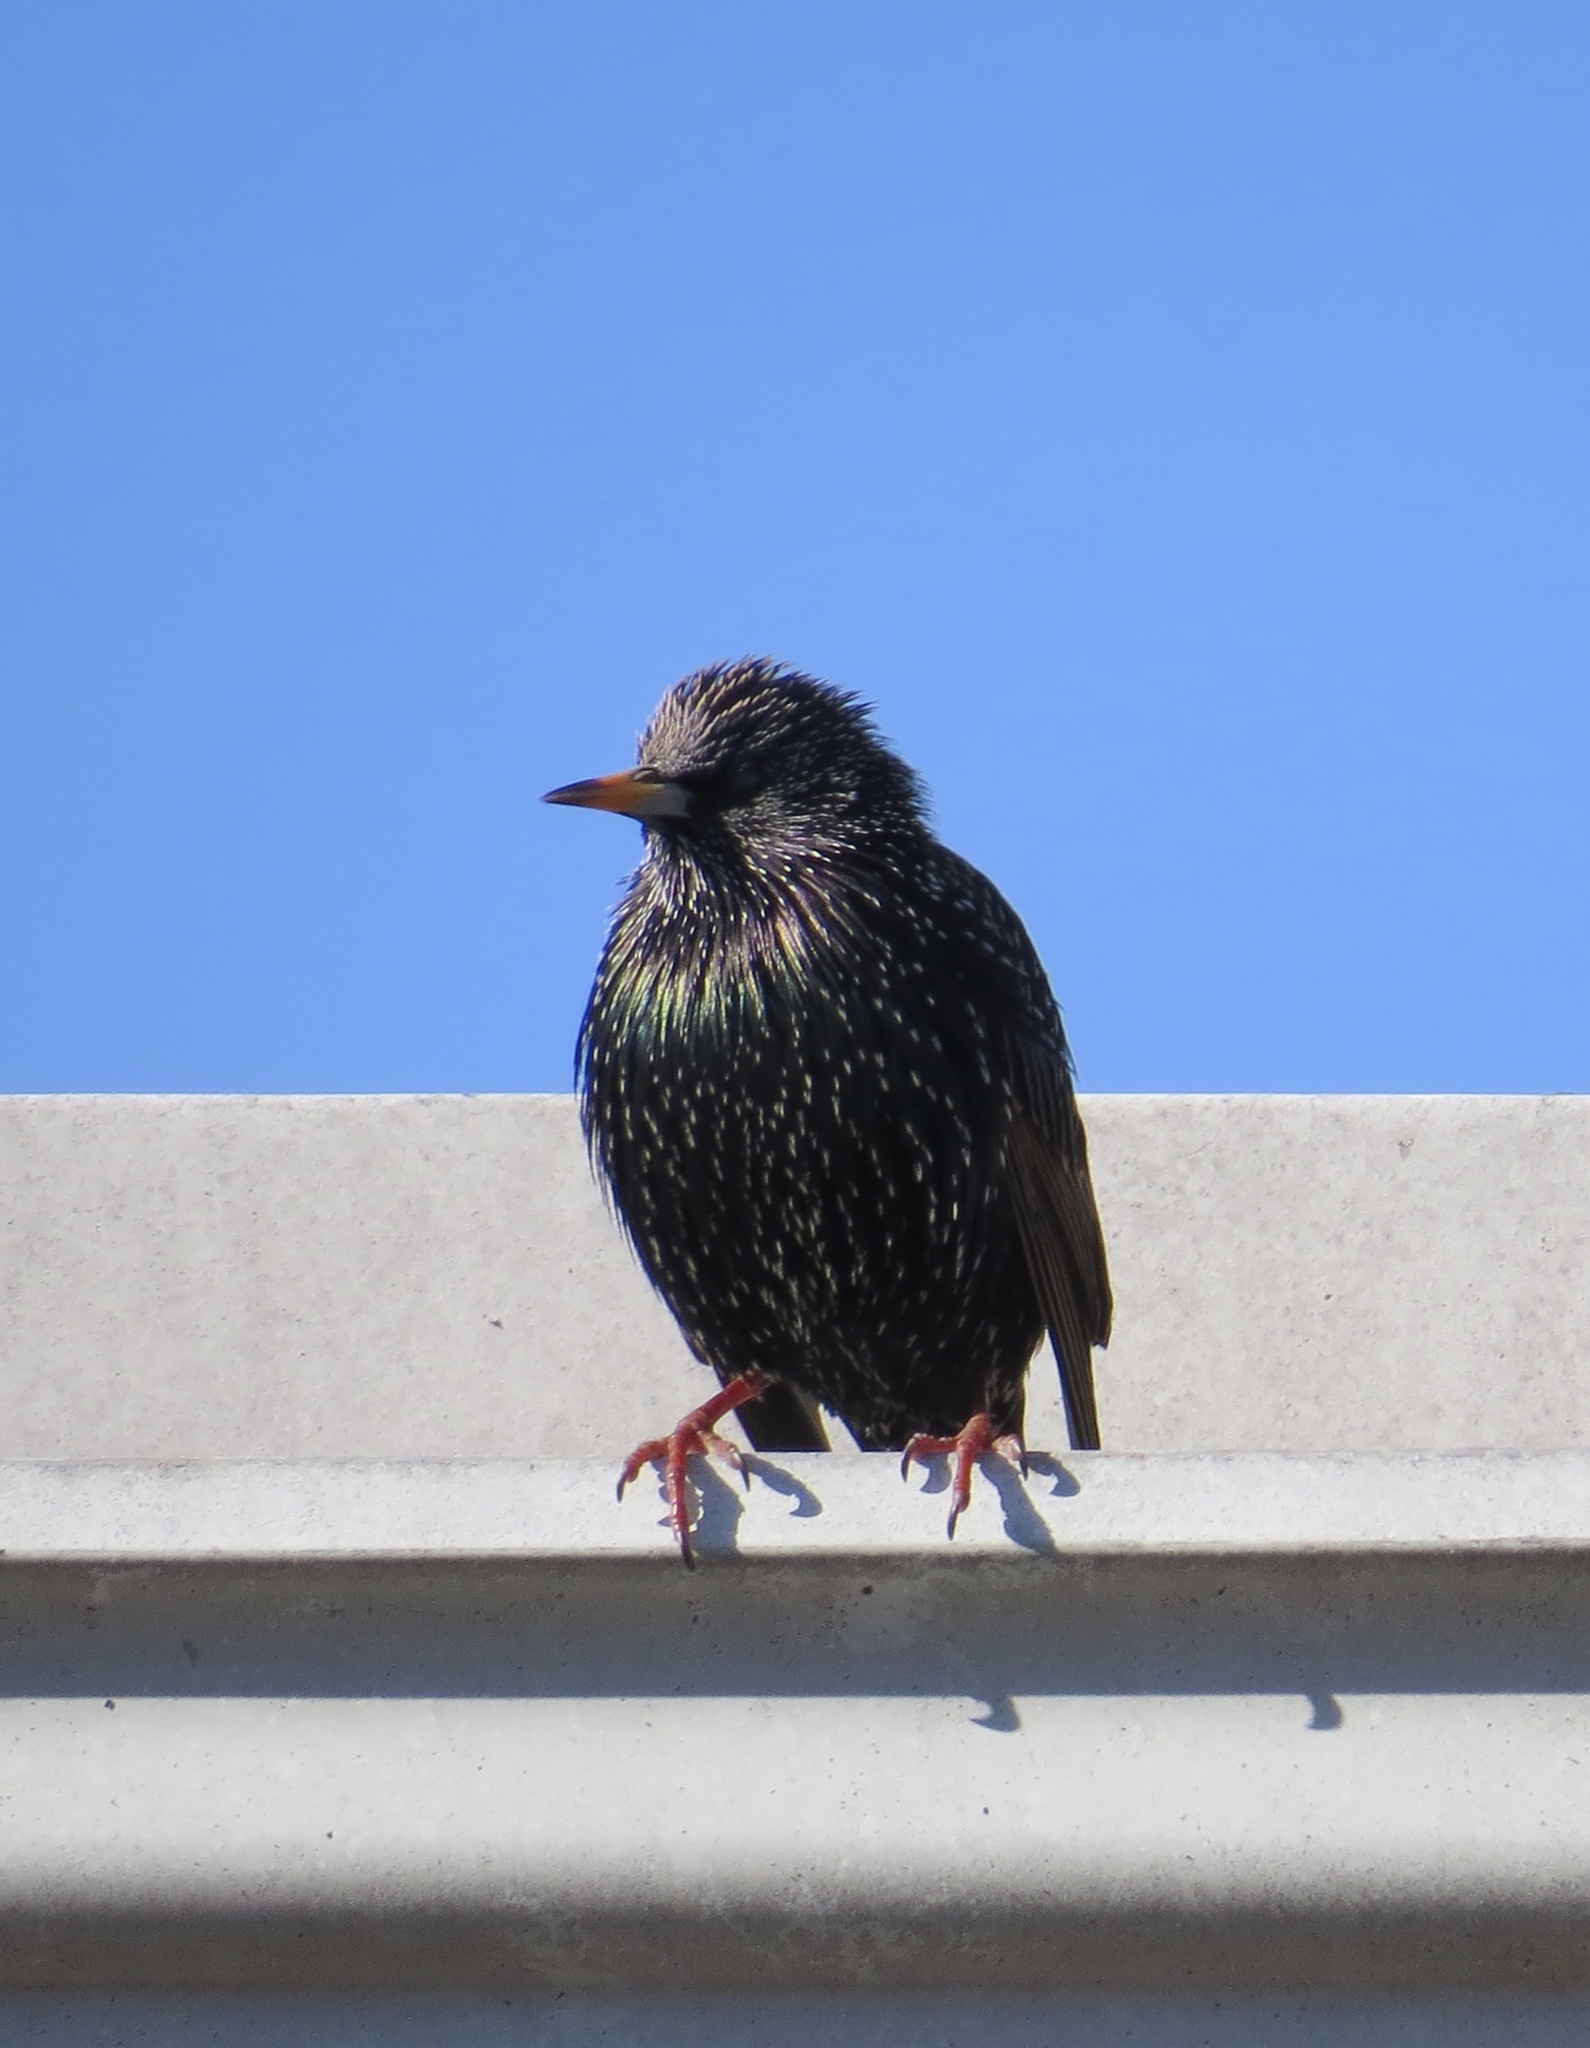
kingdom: Animalia
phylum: Chordata
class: Aves
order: Passeriformes
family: Sturnidae
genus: Sturnus
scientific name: Sturnus vulgaris
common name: Common starling
